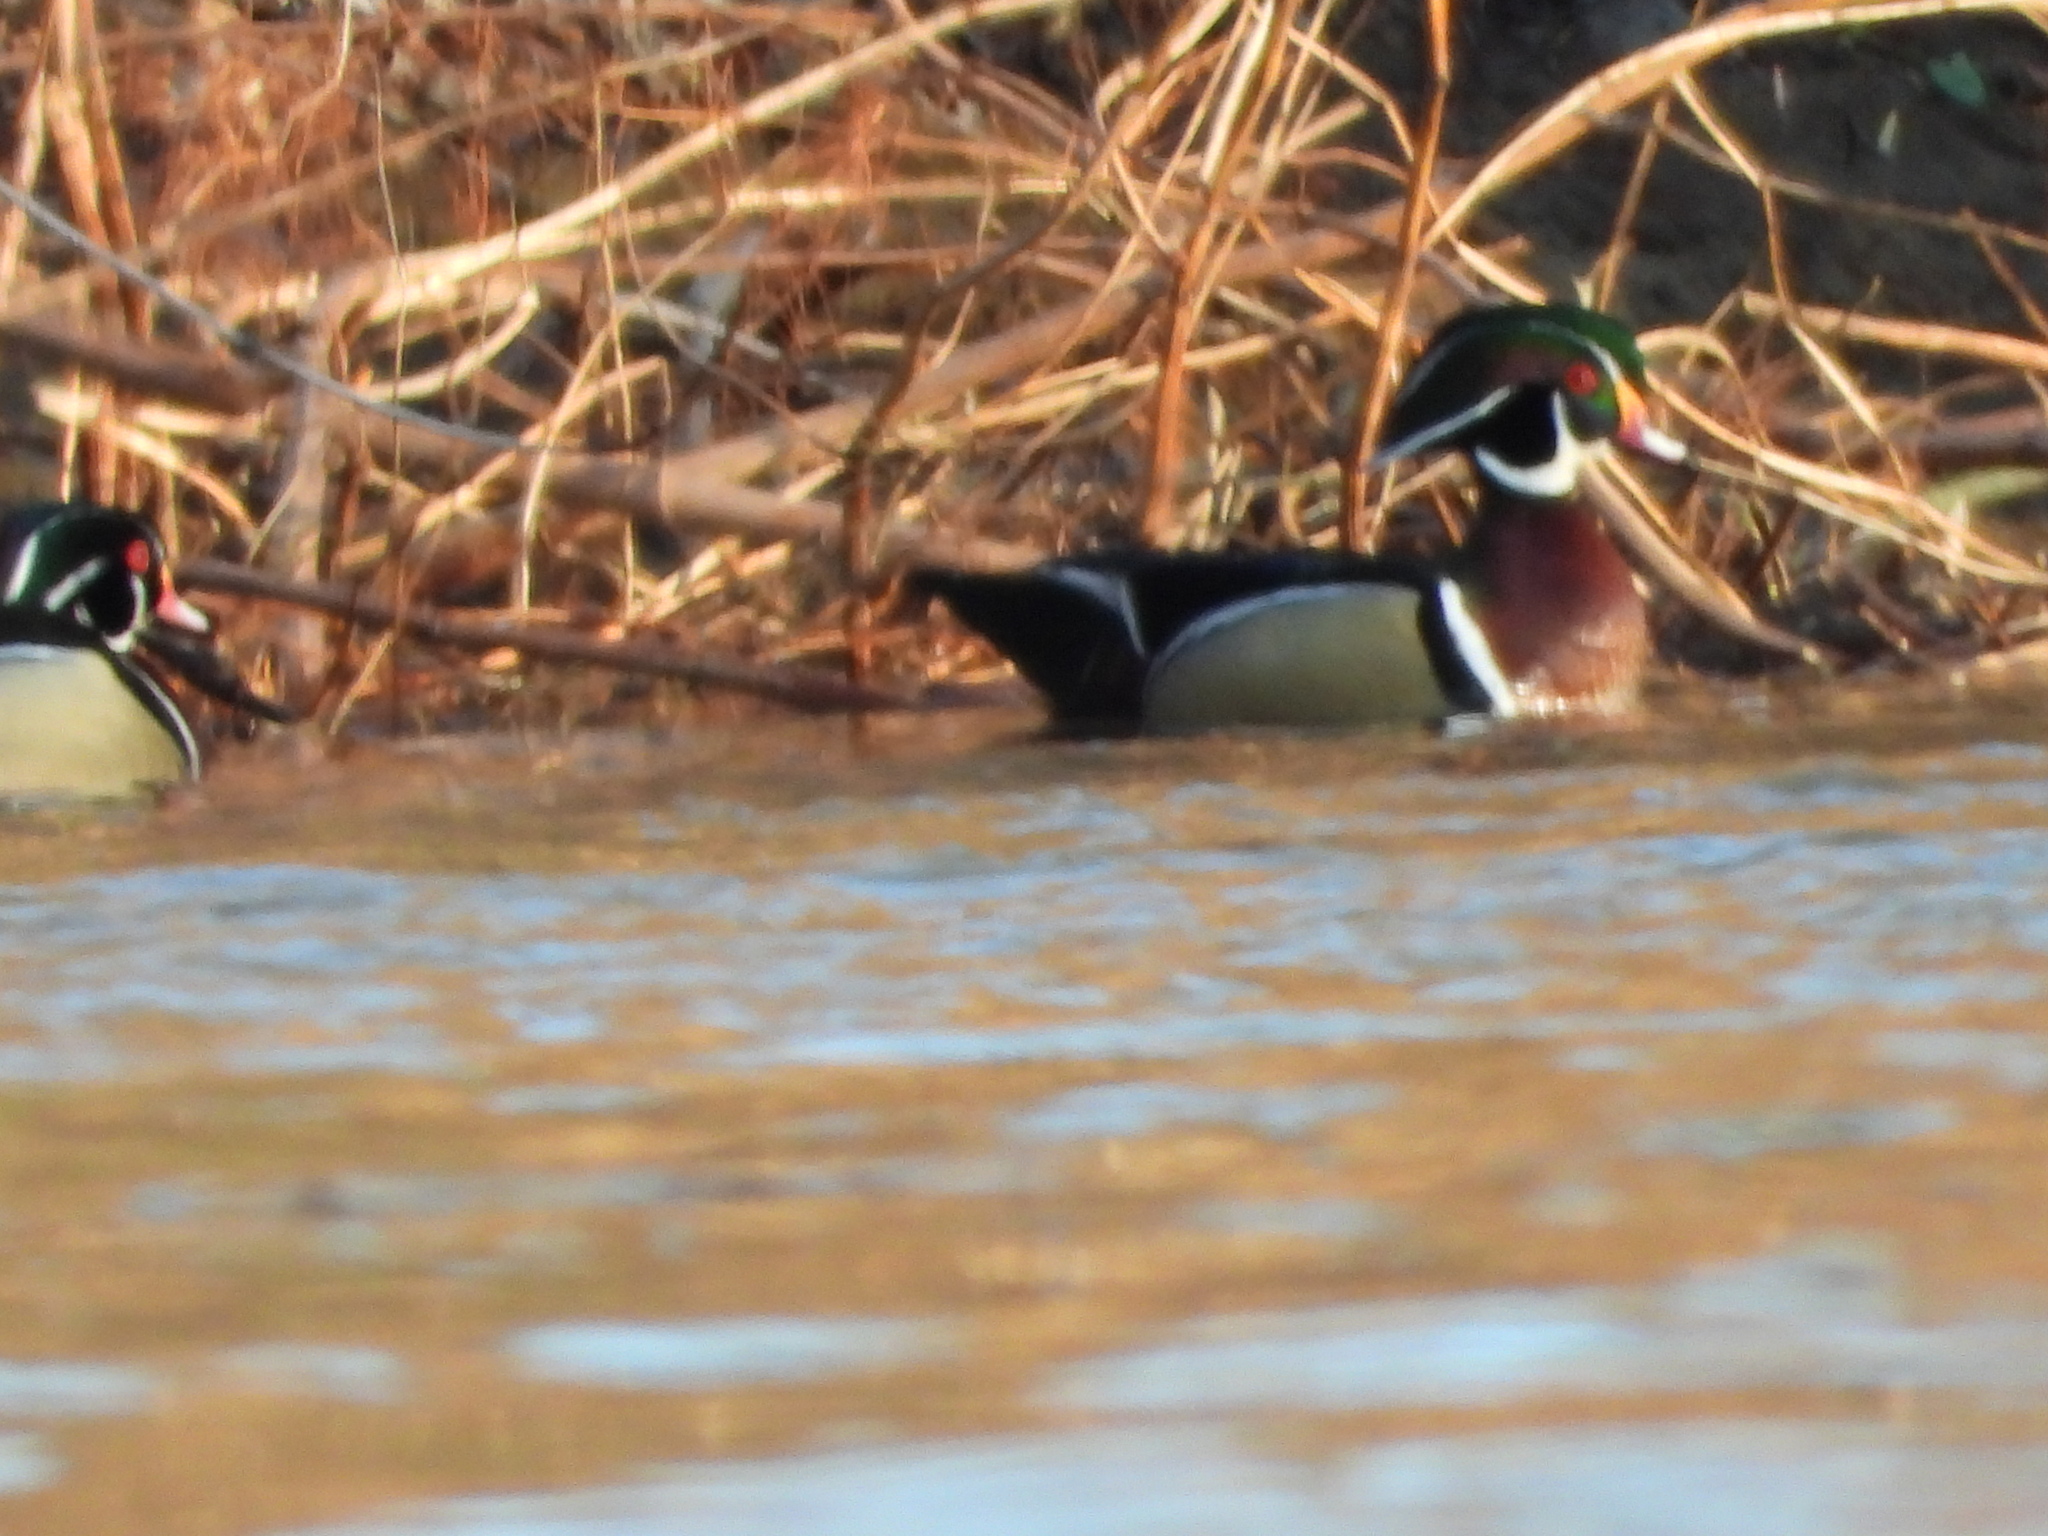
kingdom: Animalia
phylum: Chordata
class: Aves
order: Anseriformes
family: Anatidae
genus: Aix
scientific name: Aix sponsa
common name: Wood duck
